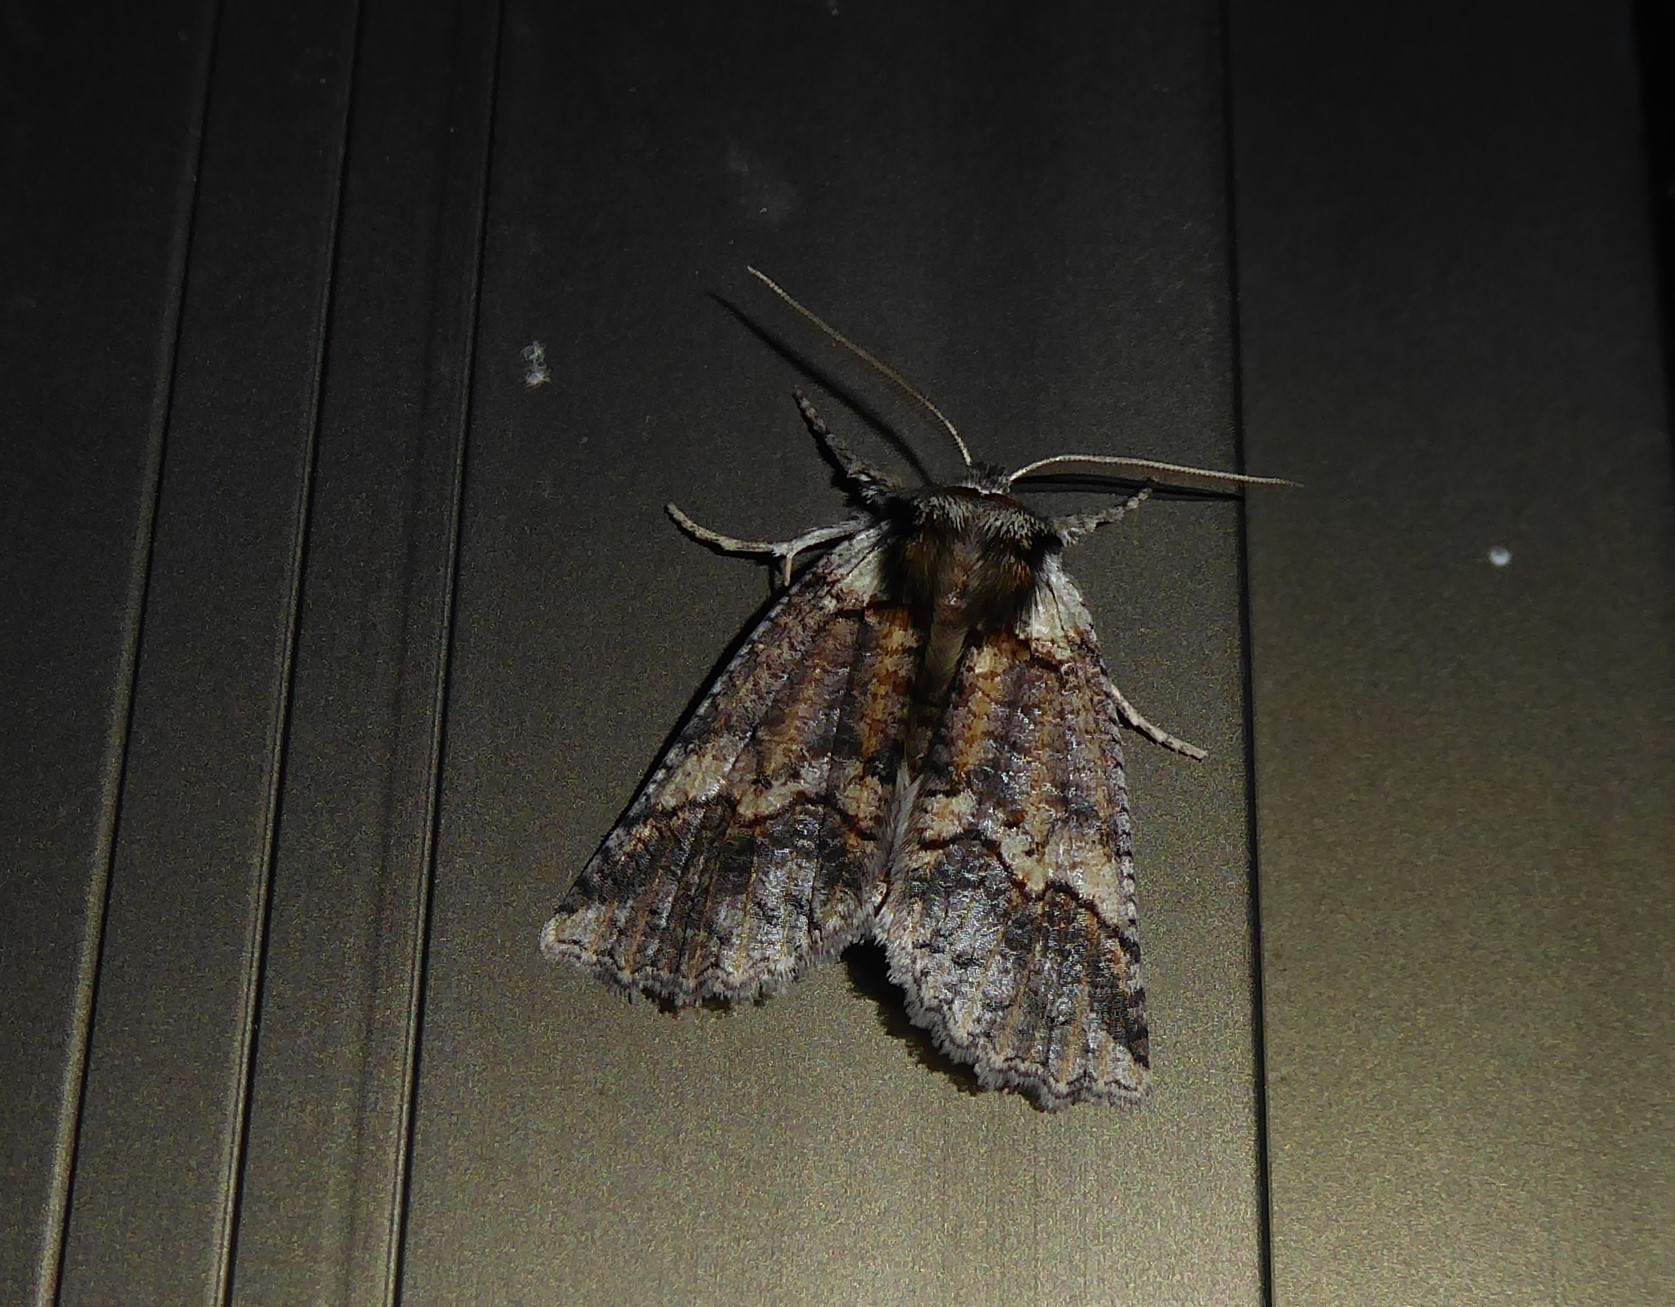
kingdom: Animalia
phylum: Arthropoda
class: Insecta
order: Lepidoptera
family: Geometridae
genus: Declana
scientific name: Declana floccosa
